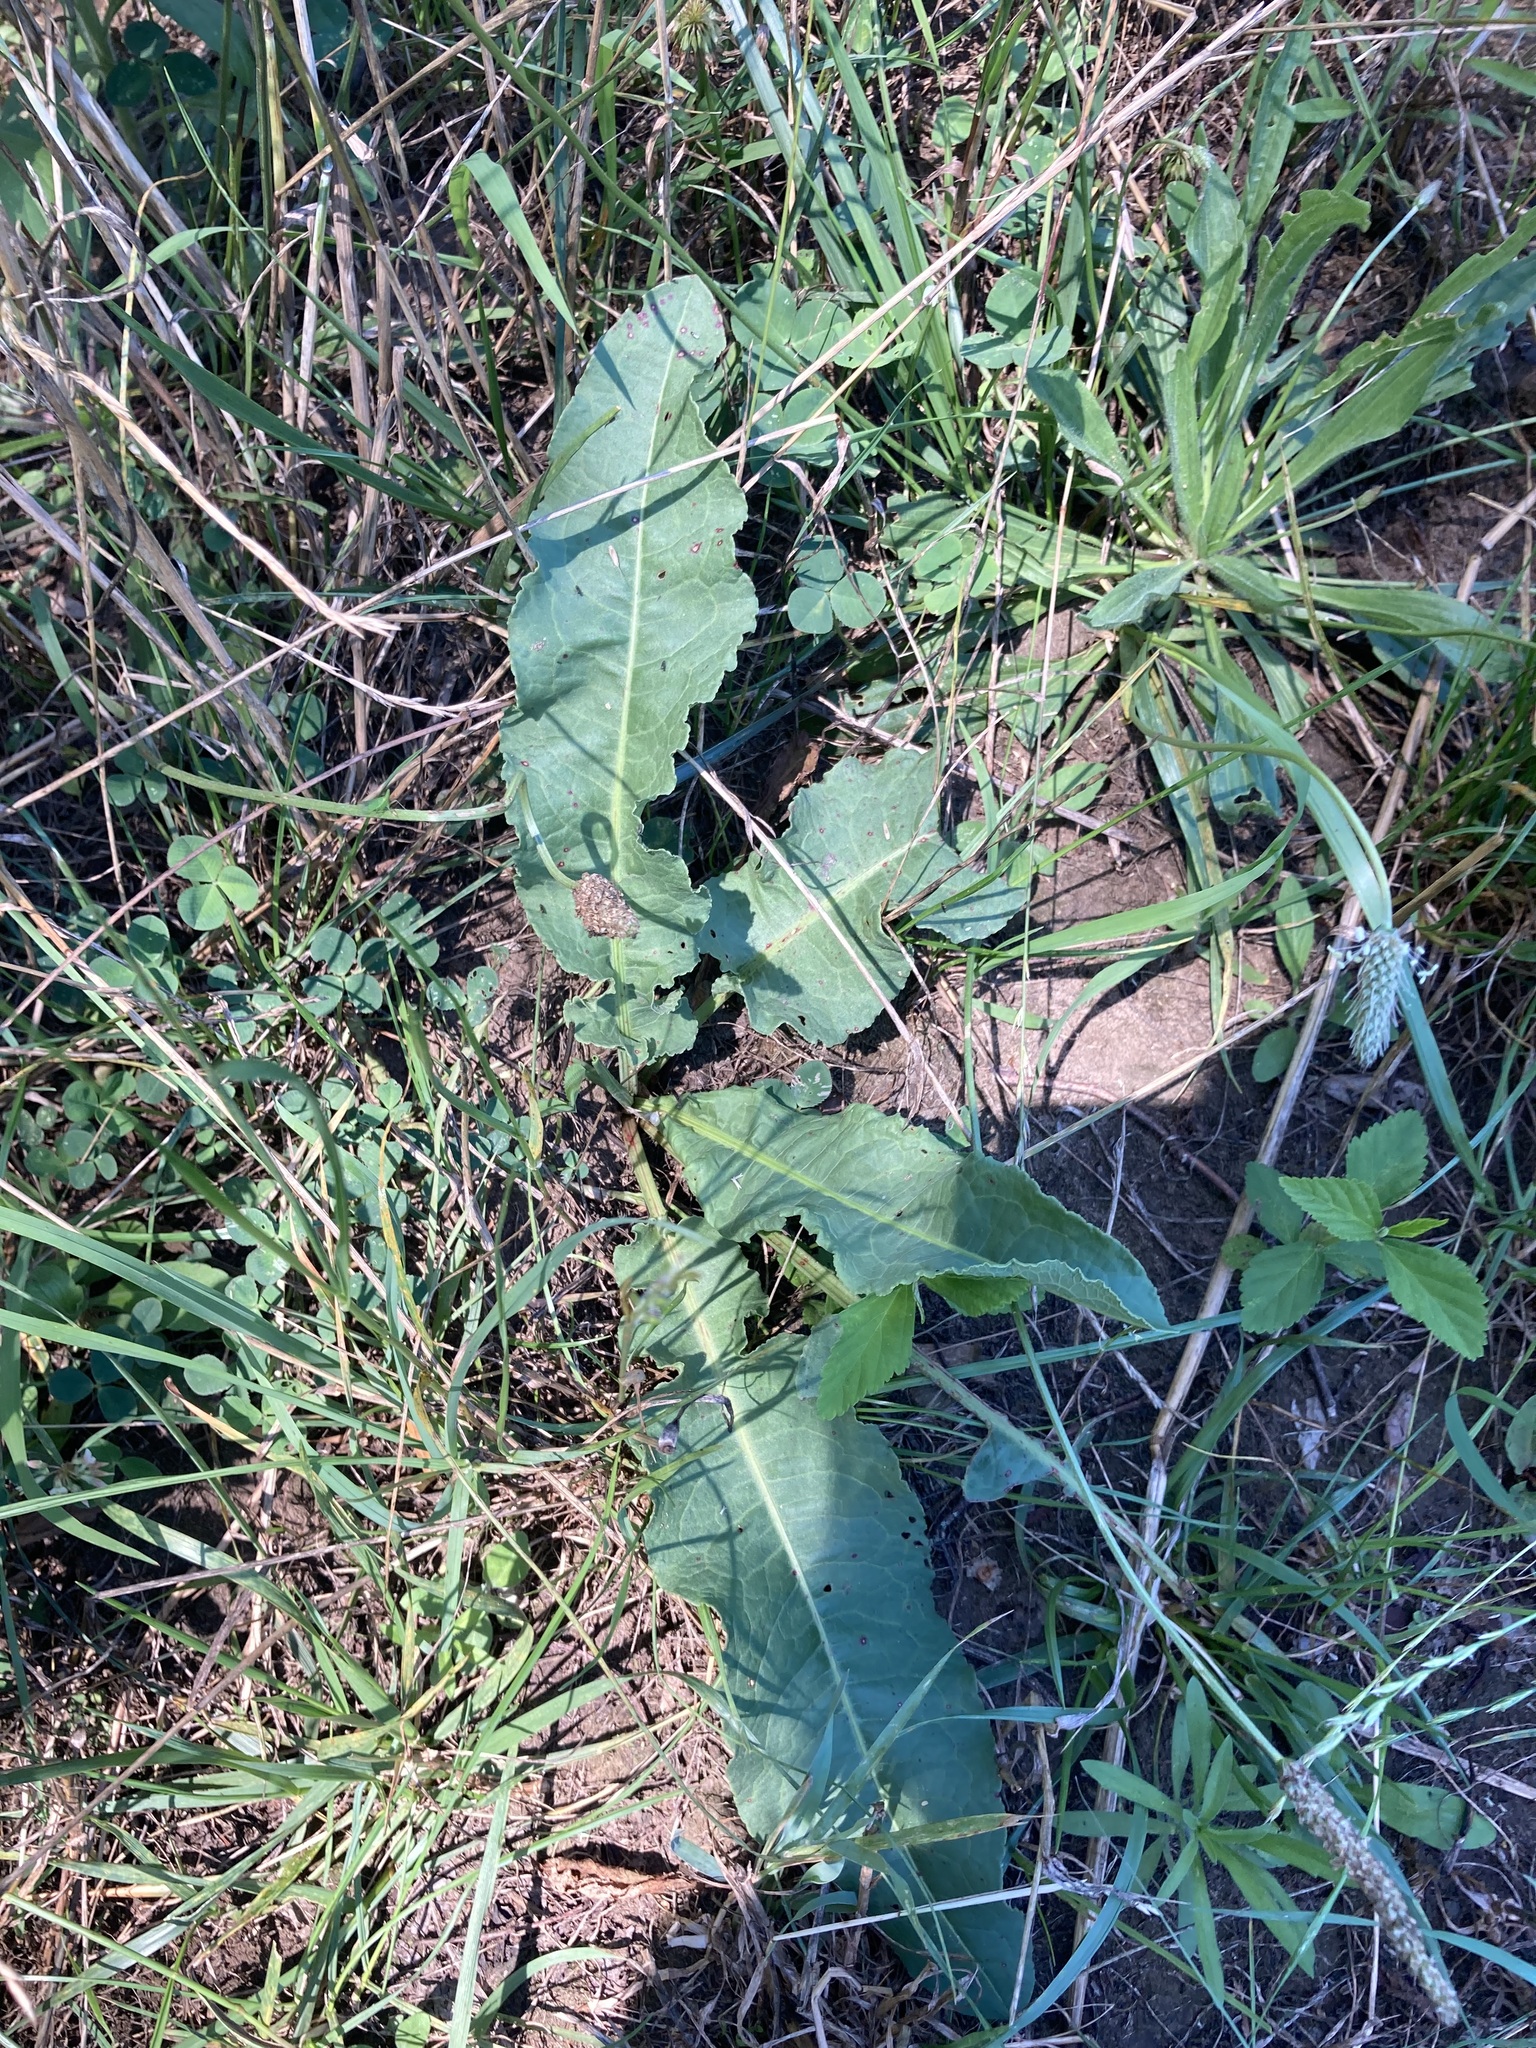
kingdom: Plantae
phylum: Tracheophyta
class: Magnoliopsida
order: Caryophyllales
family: Polygonaceae
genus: Rumex
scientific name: Rumex crispus
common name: Curled dock
